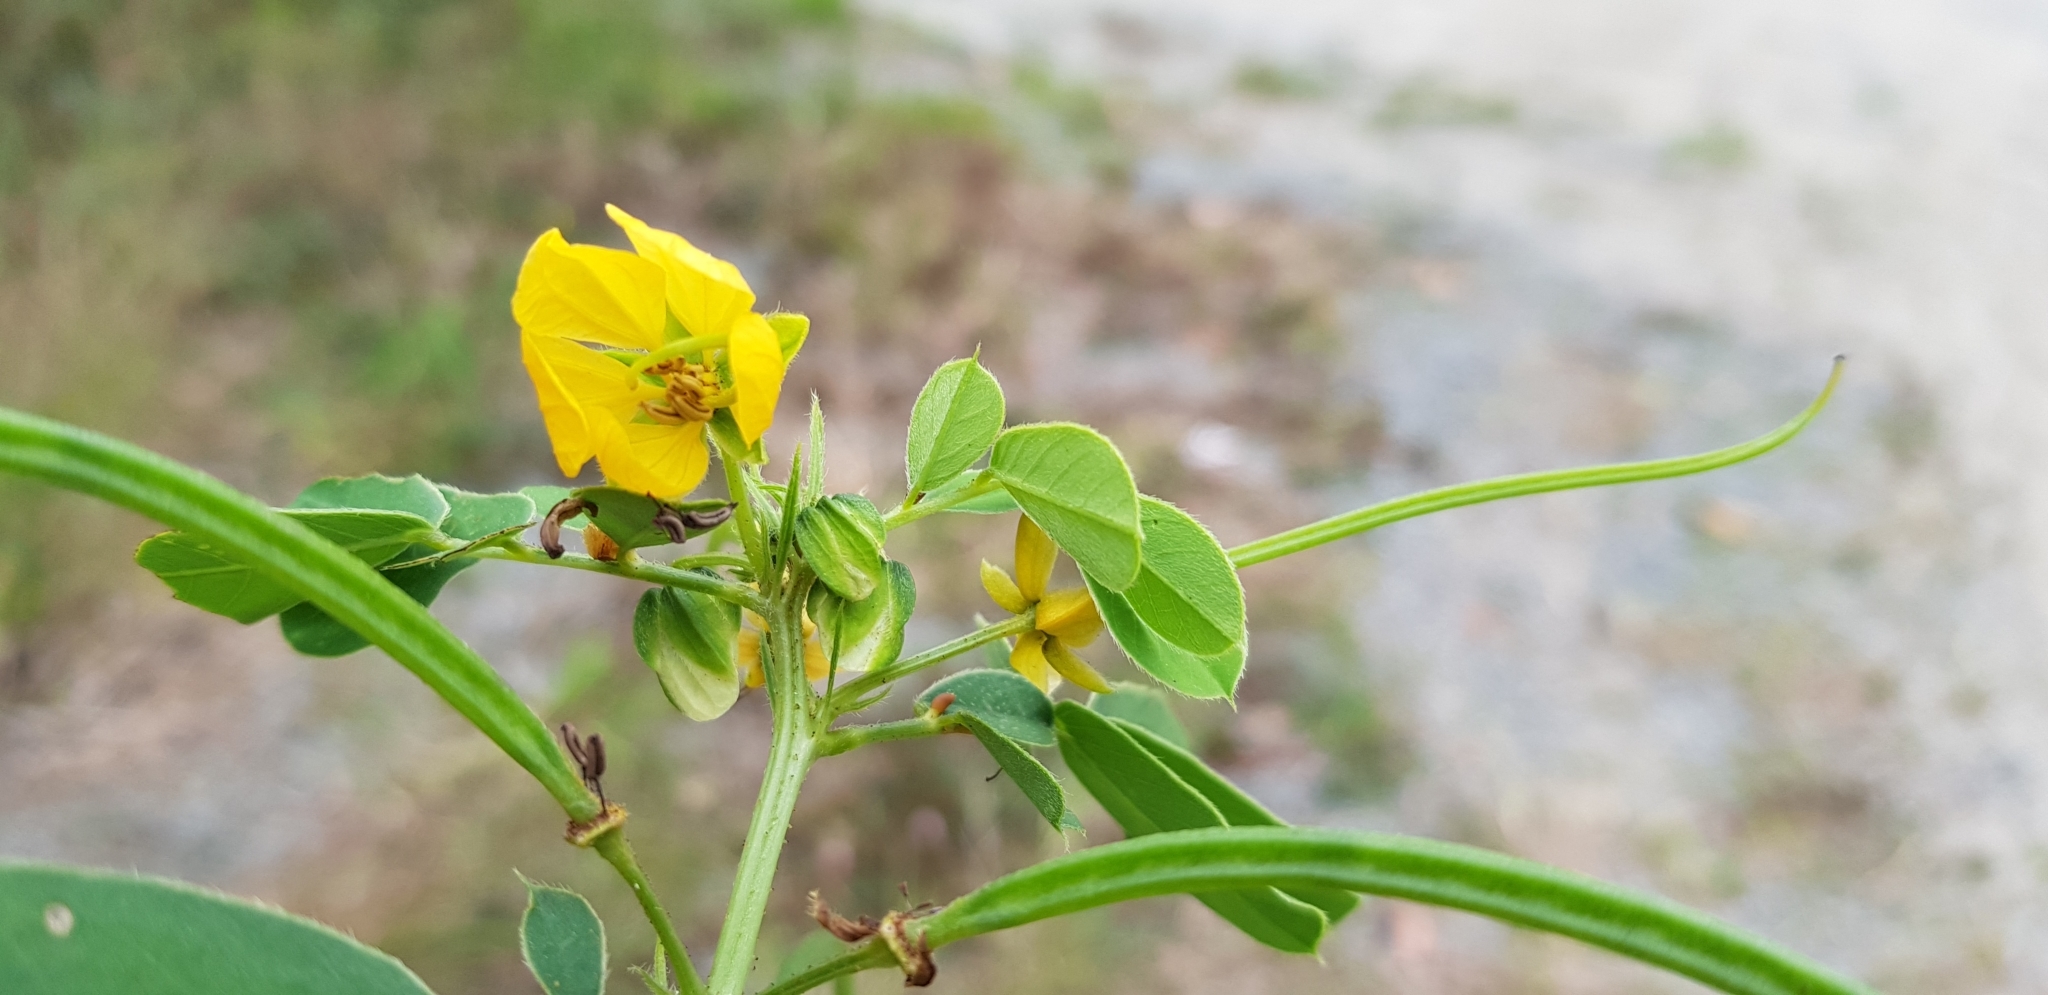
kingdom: Plantae
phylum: Tracheophyta
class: Magnoliopsida
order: Fabales
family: Fabaceae
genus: Senna
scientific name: Senna obtusifolia
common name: Java-bean
